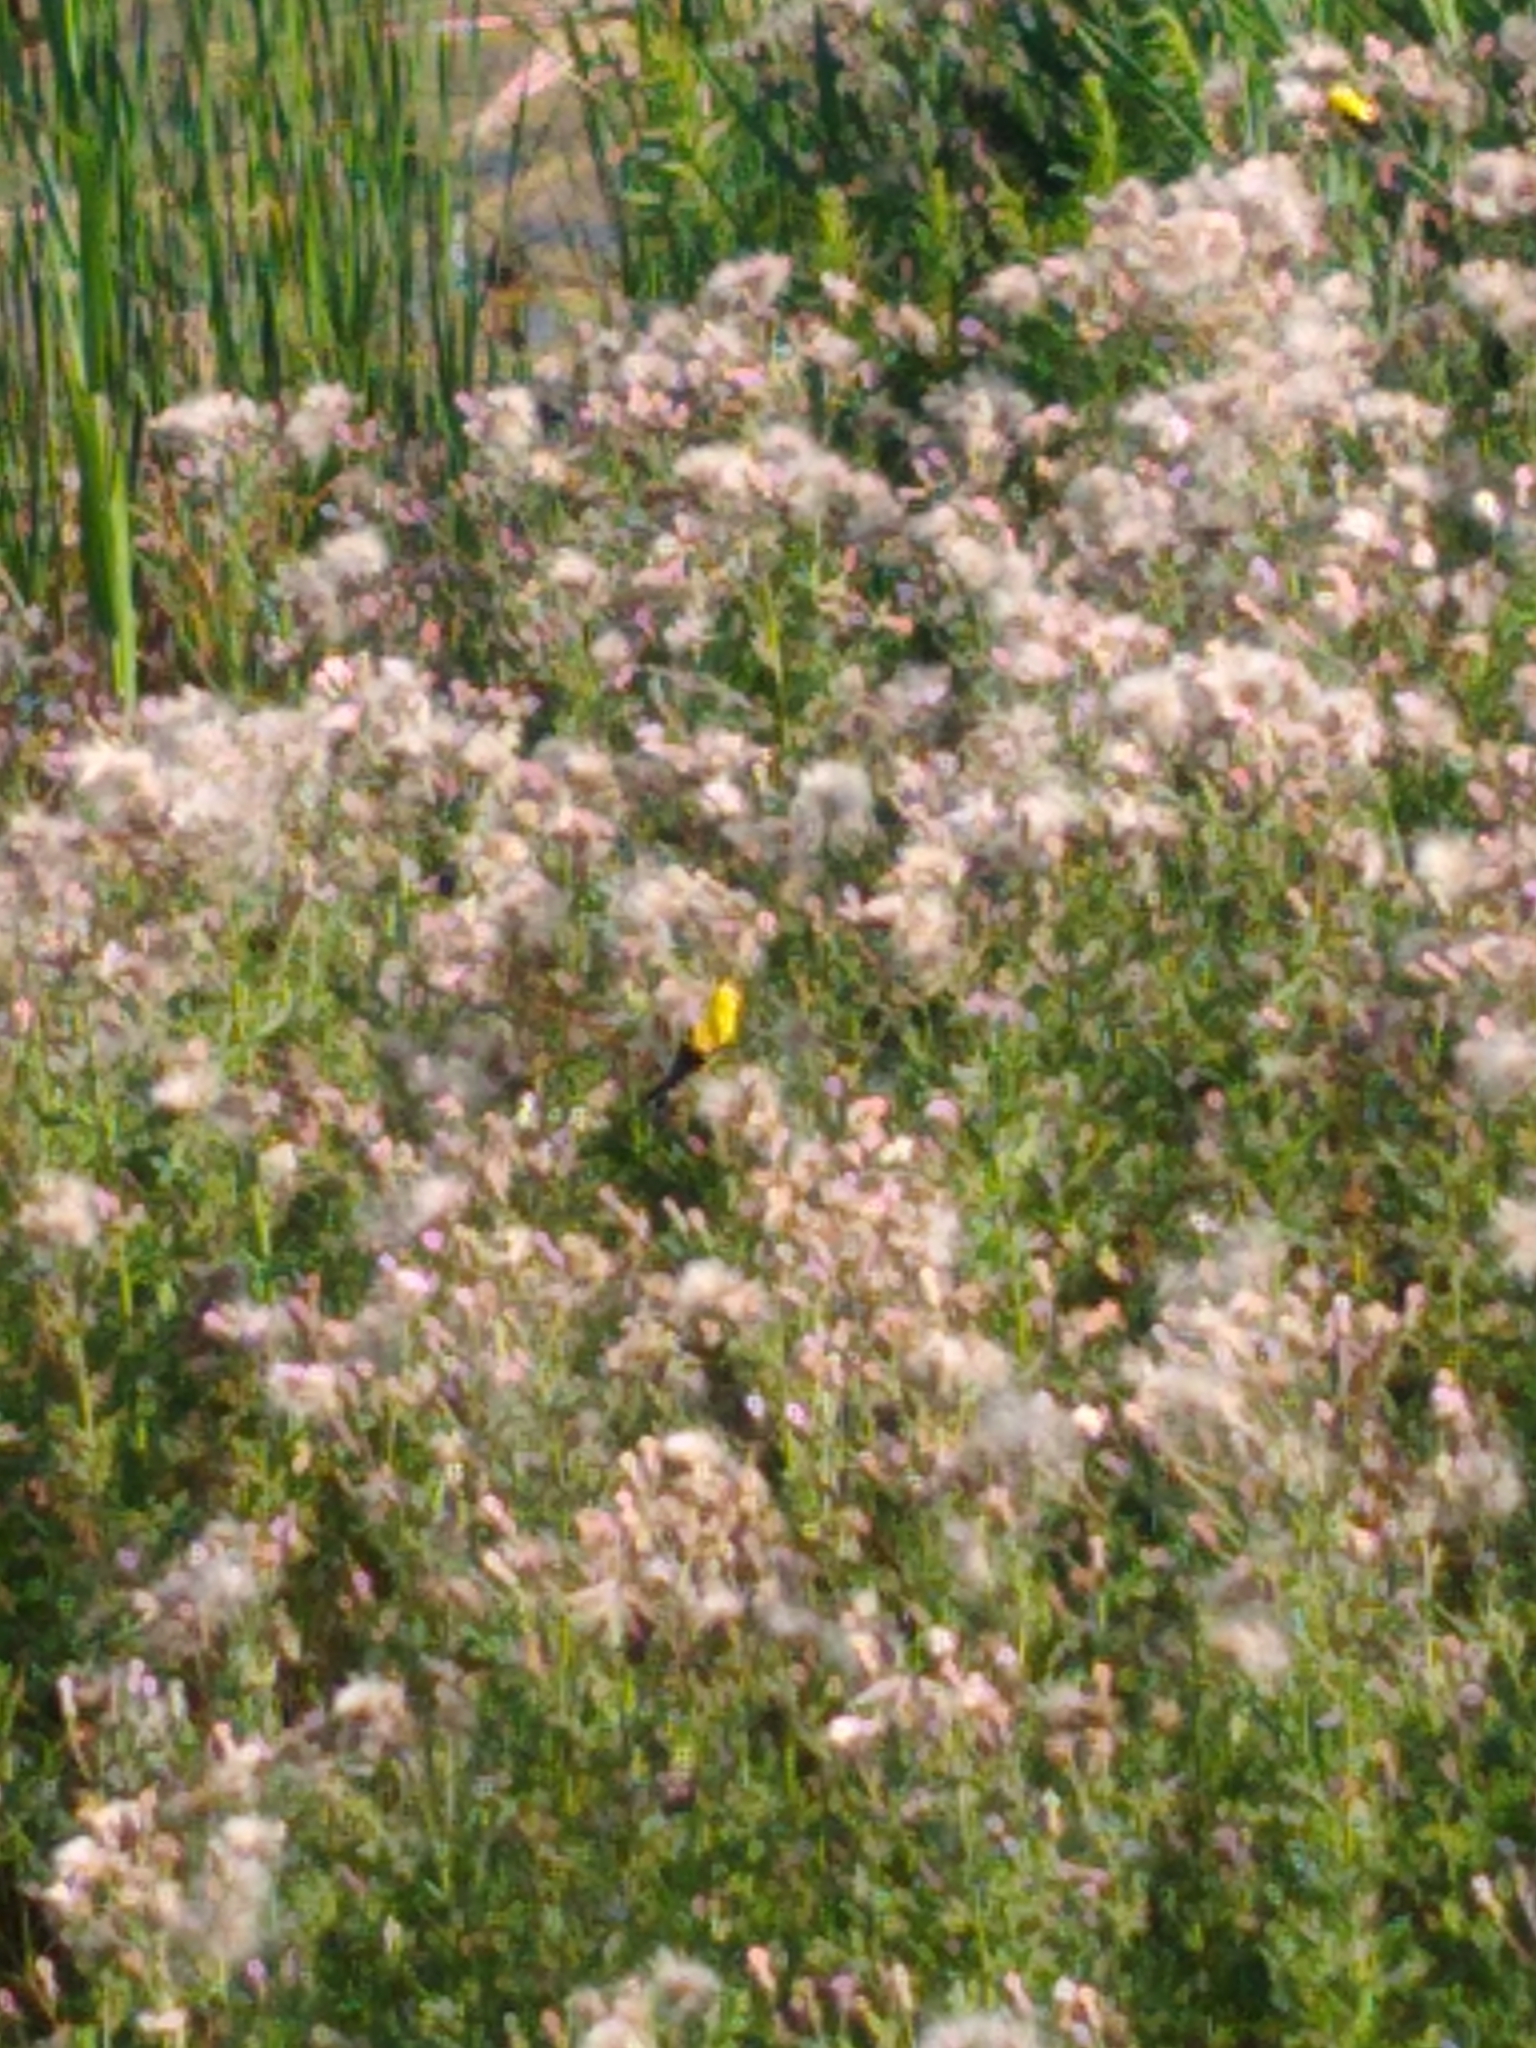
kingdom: Animalia
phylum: Chordata
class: Aves
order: Passeriformes
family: Fringillidae
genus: Spinus
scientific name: Spinus tristis
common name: American goldfinch
